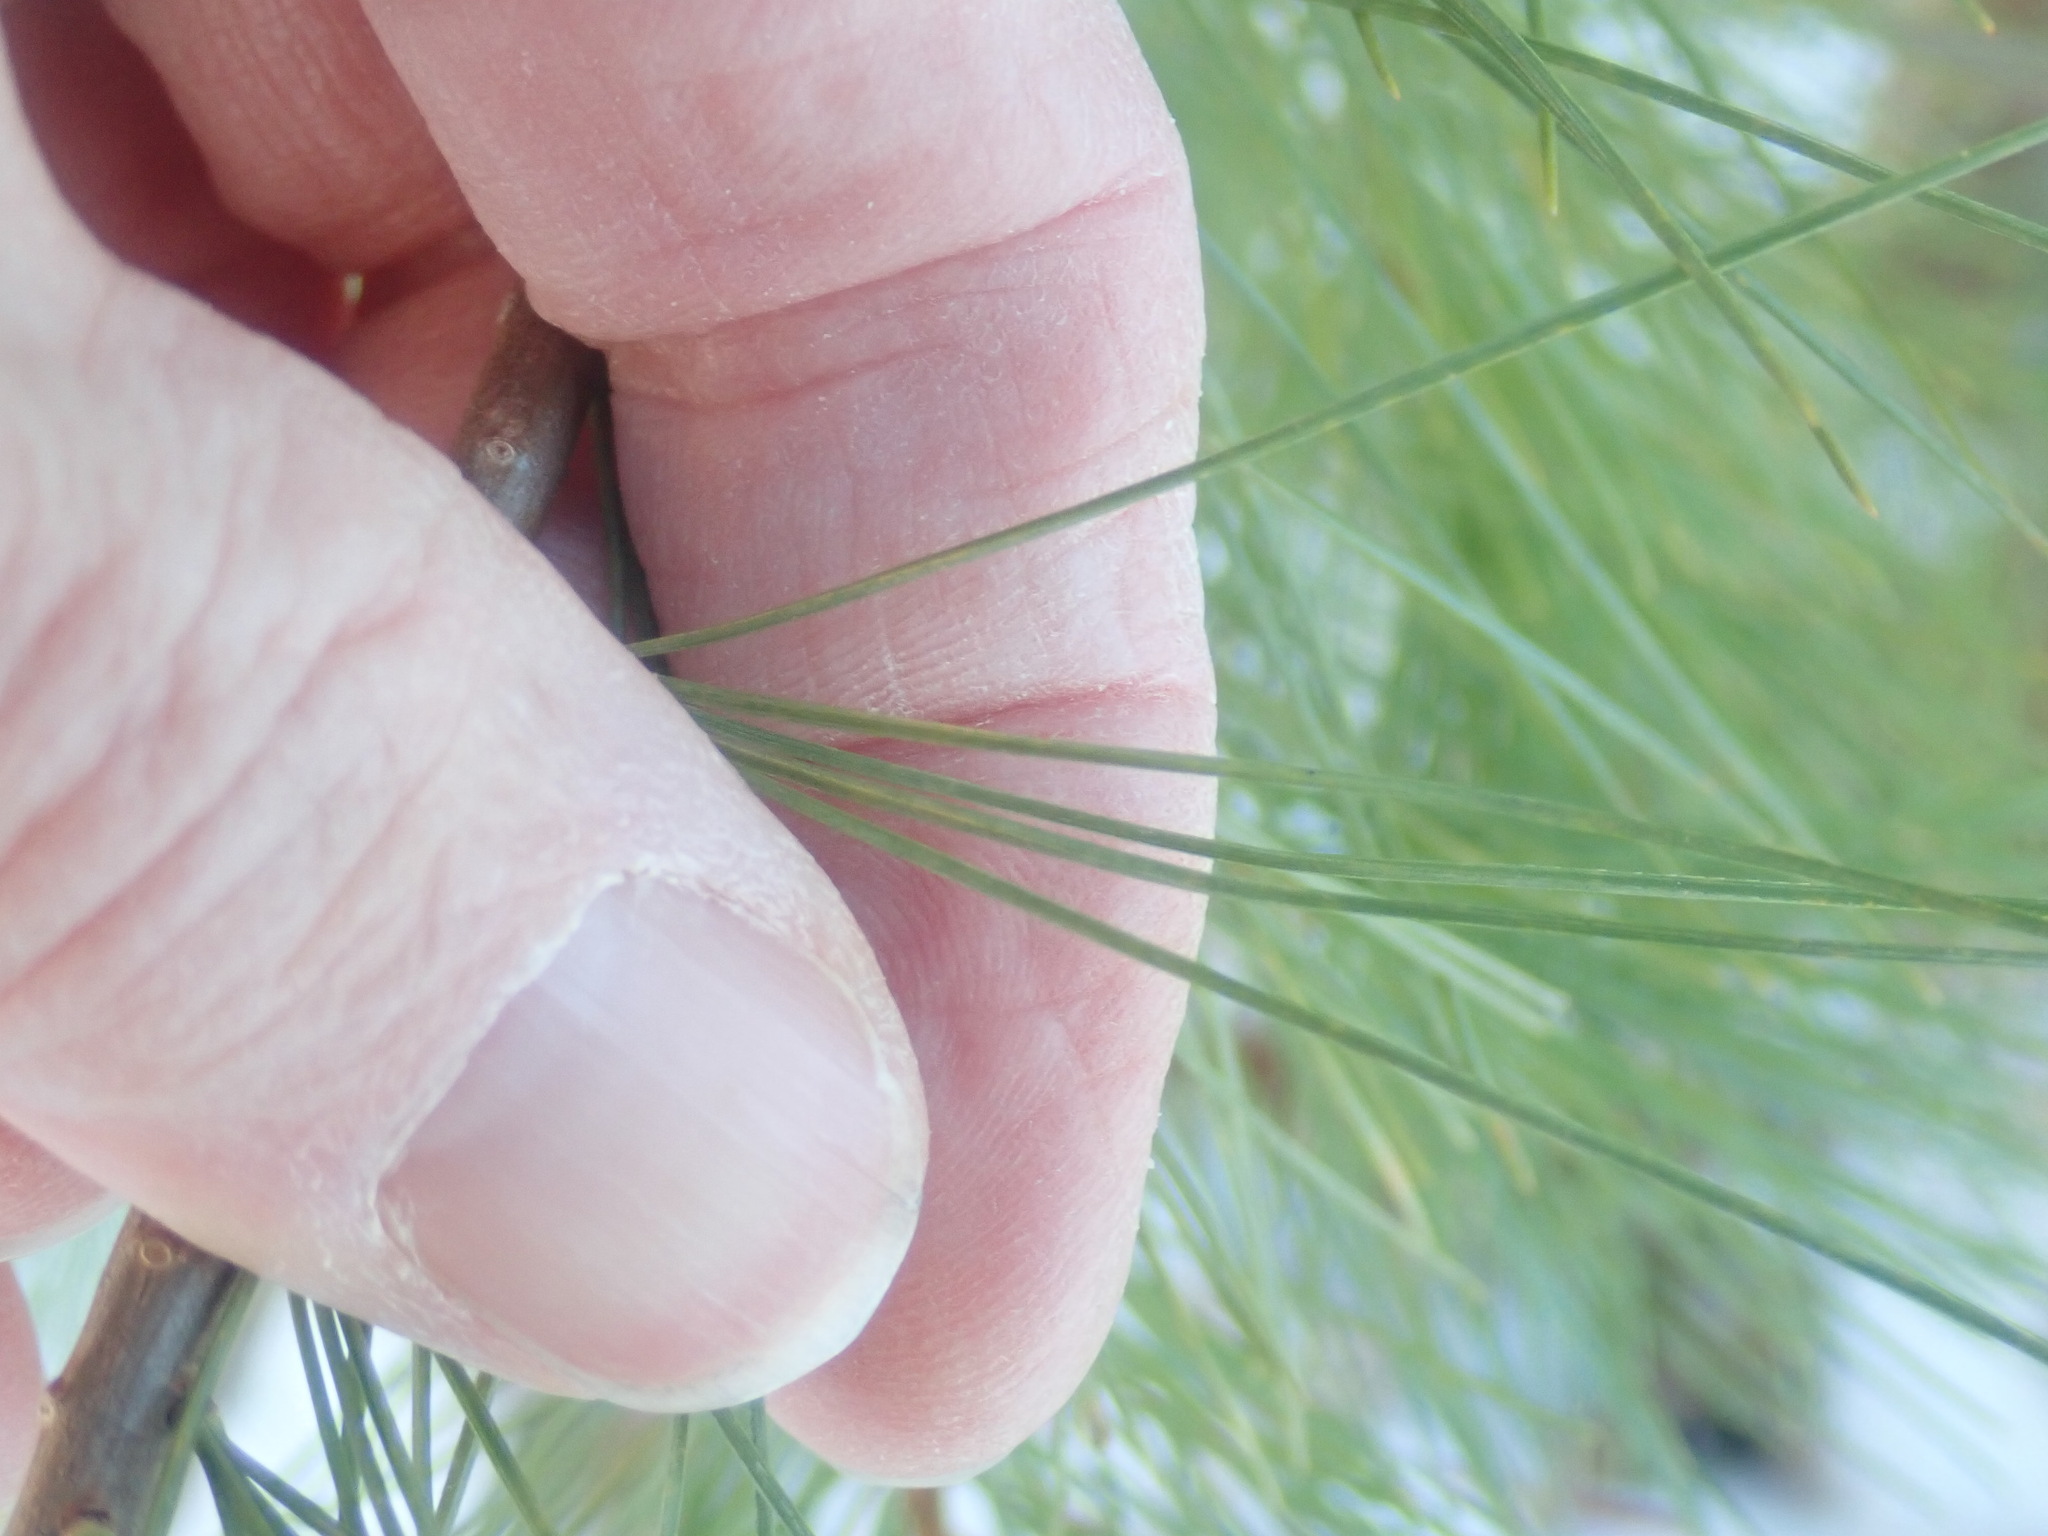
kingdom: Plantae
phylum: Tracheophyta
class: Pinopsida
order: Pinales
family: Pinaceae
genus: Pinus
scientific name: Pinus strobus
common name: Weymouth pine
